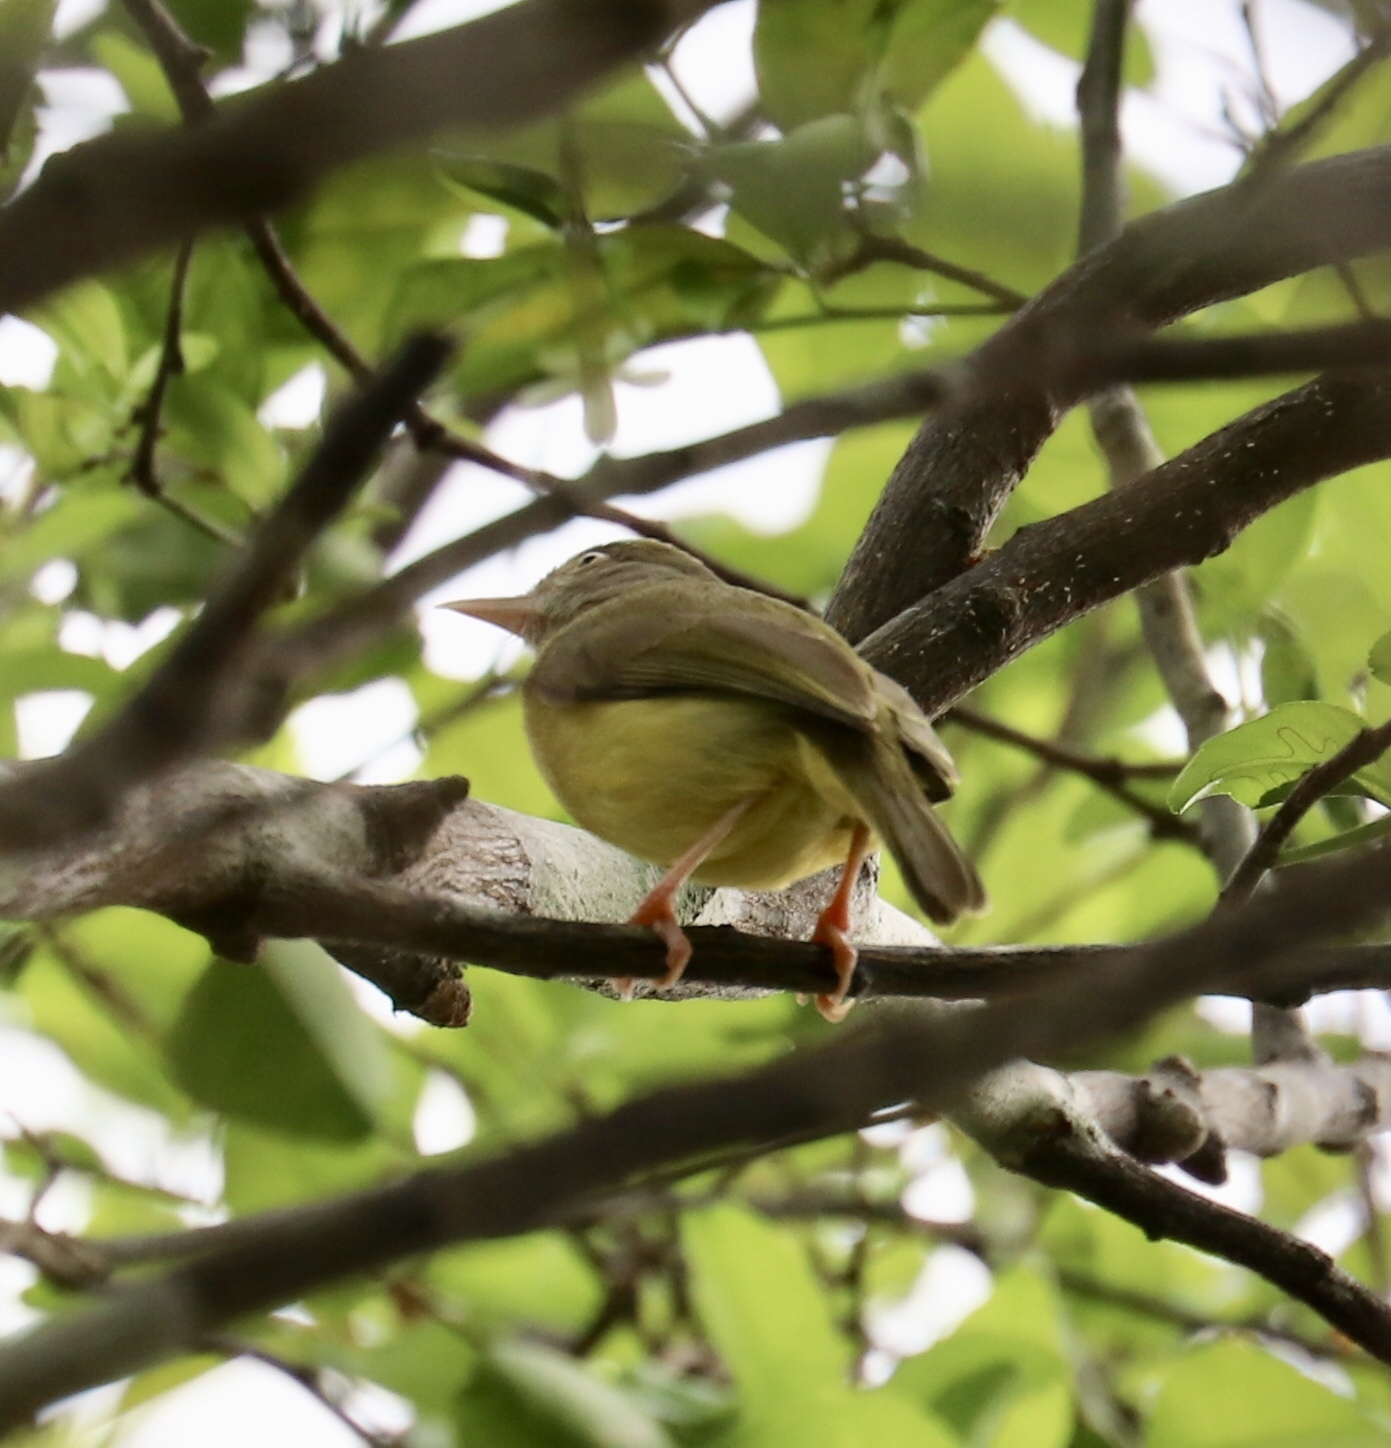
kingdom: Animalia
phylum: Chordata
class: Aves
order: Passeriformes
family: Vireonidae
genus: Hylophilus
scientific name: Hylophilus flavipes
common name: Scrub greenlet
